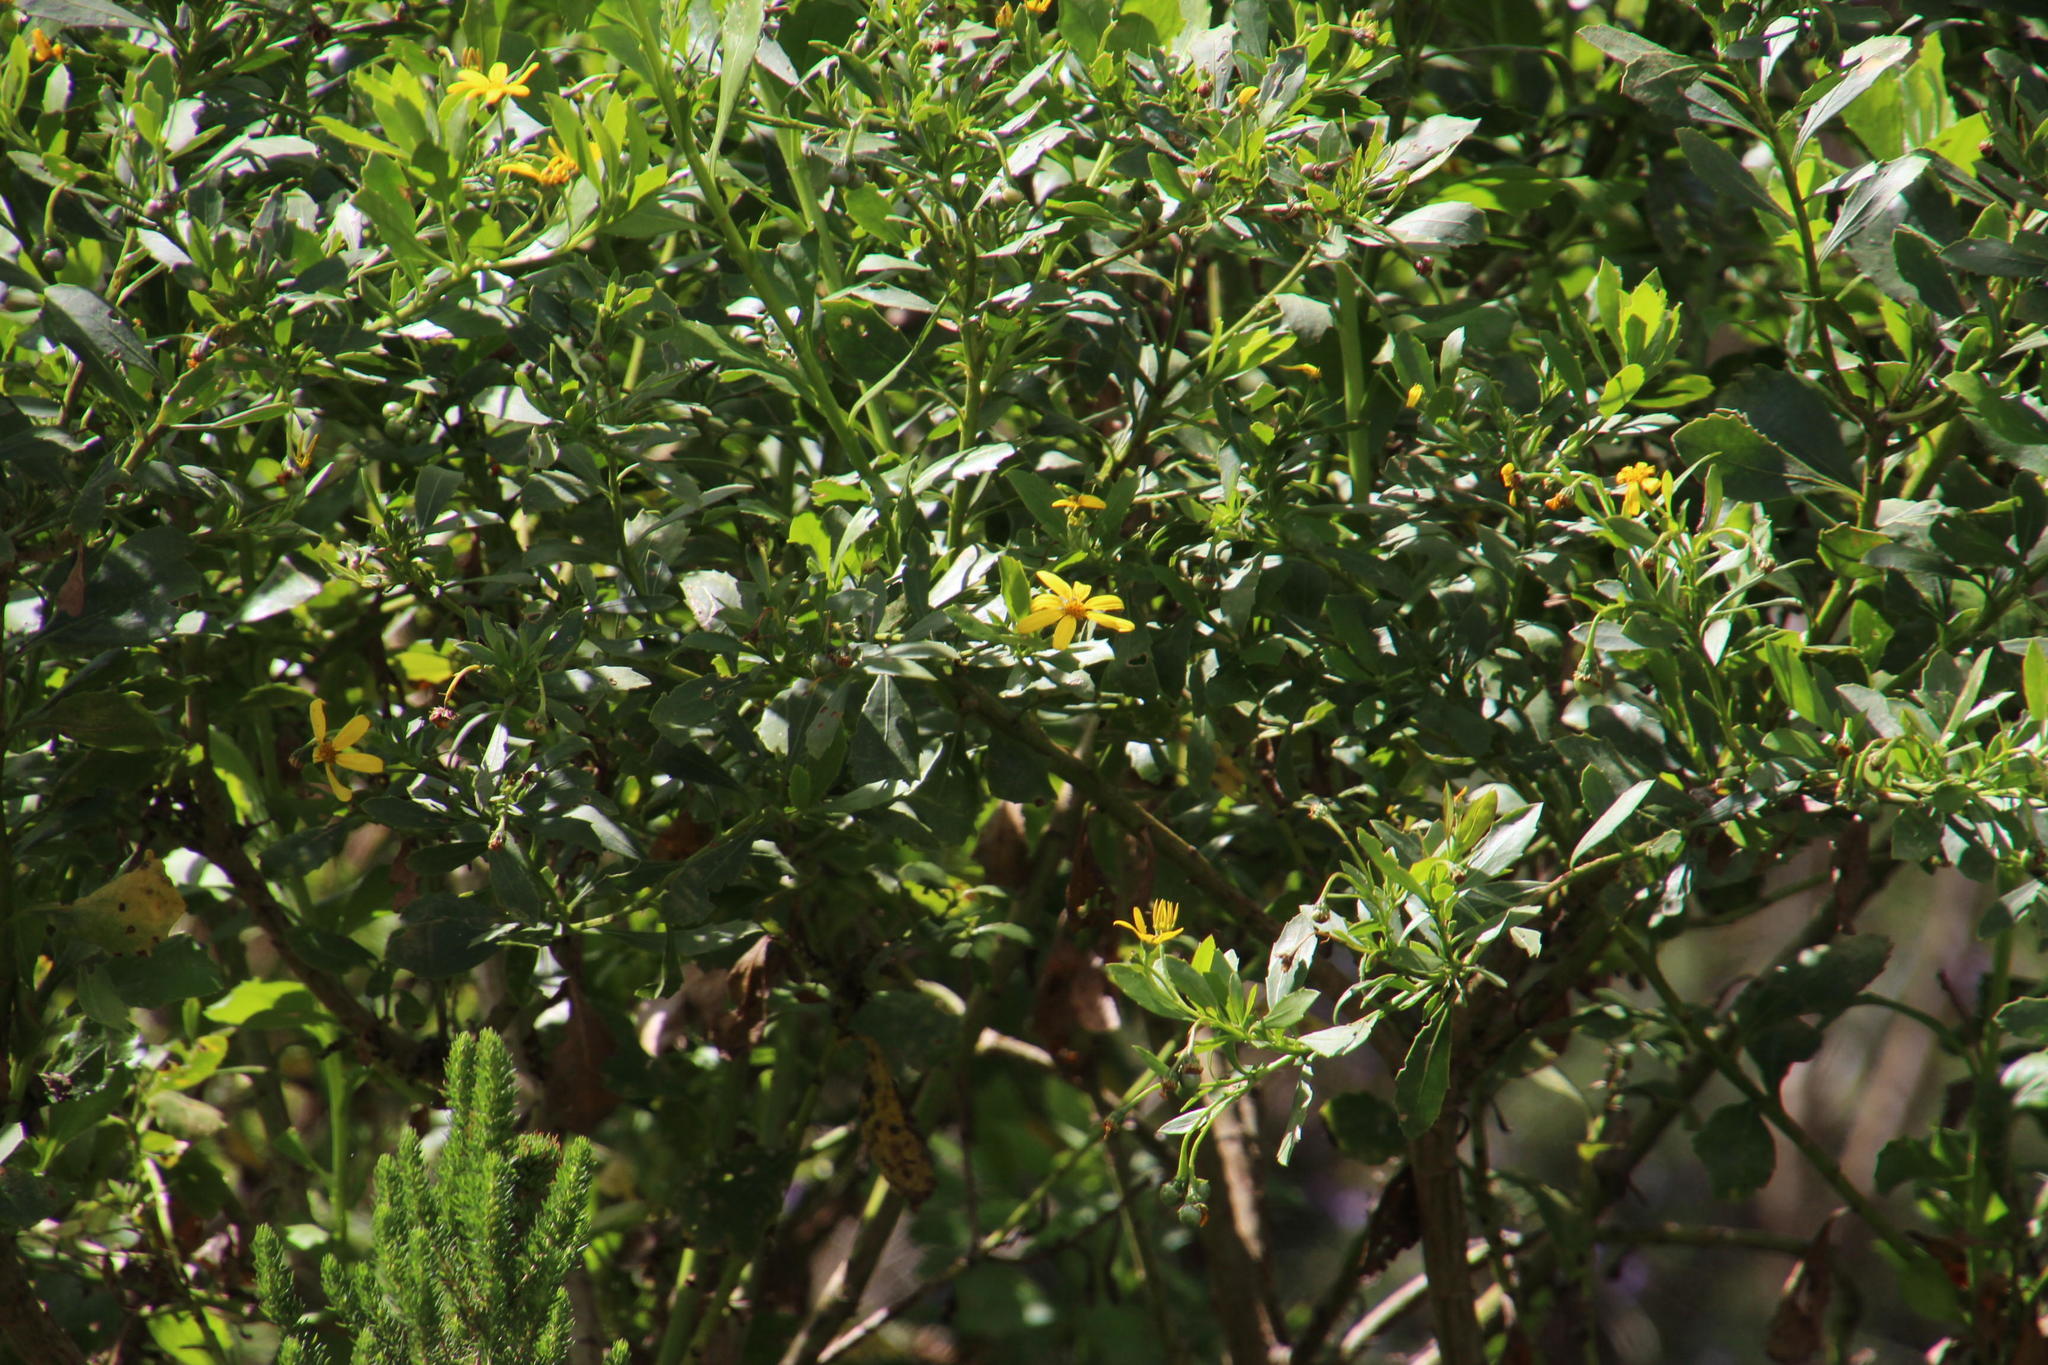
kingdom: Plantae
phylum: Tracheophyta
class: Magnoliopsida
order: Asterales
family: Asteraceae
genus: Osteospermum
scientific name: Osteospermum moniliferum
